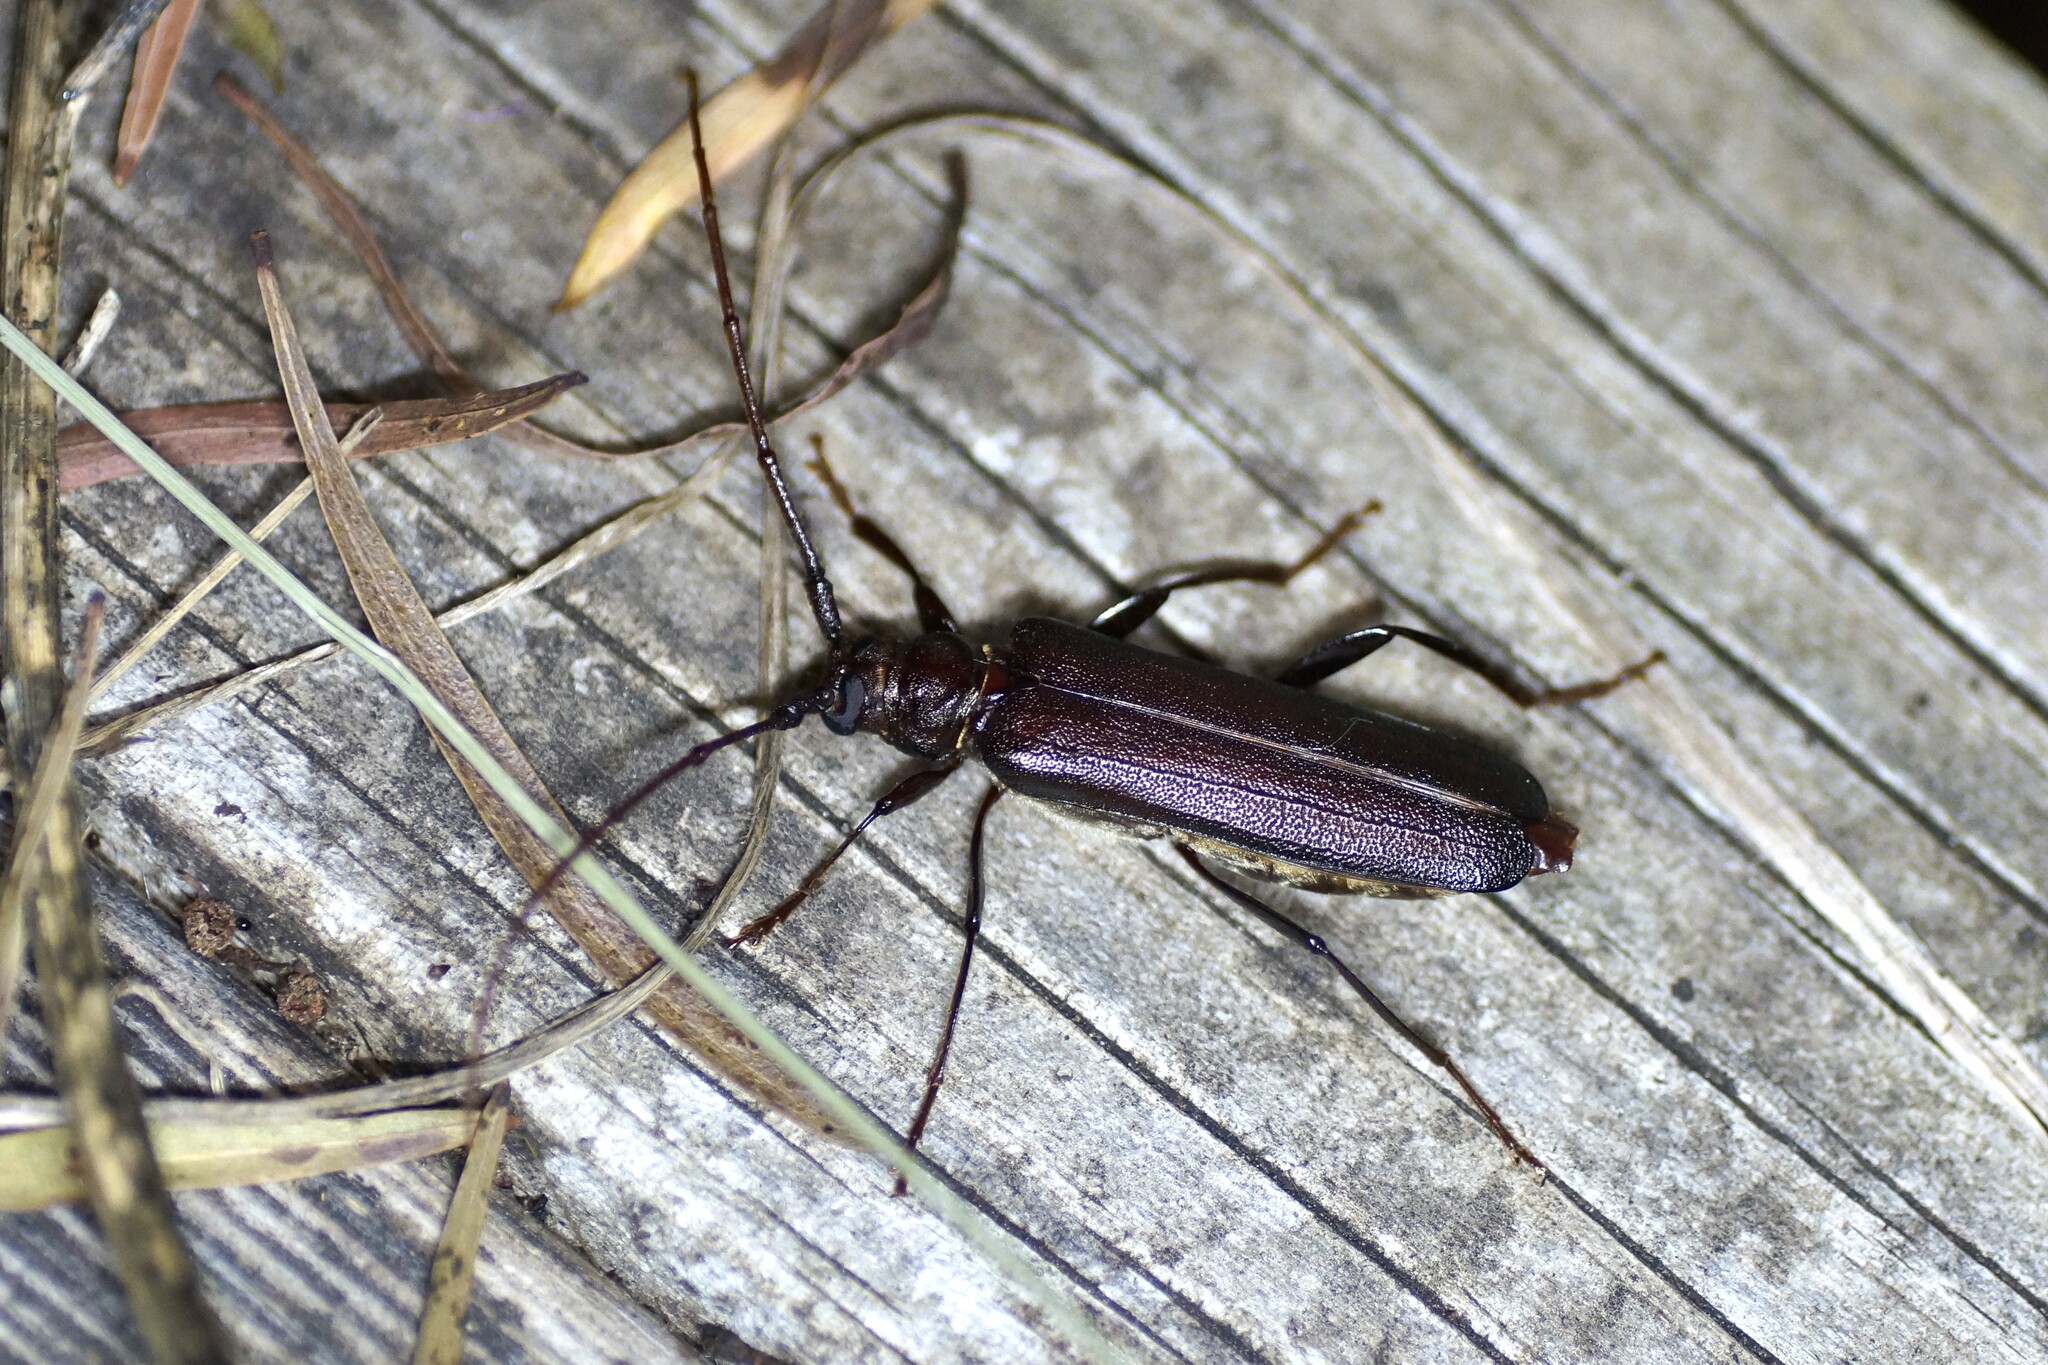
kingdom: Animalia
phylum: Arthropoda
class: Insecta
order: Coleoptera
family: Cerambycidae
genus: Xystrocera
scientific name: Xystrocera virescens
